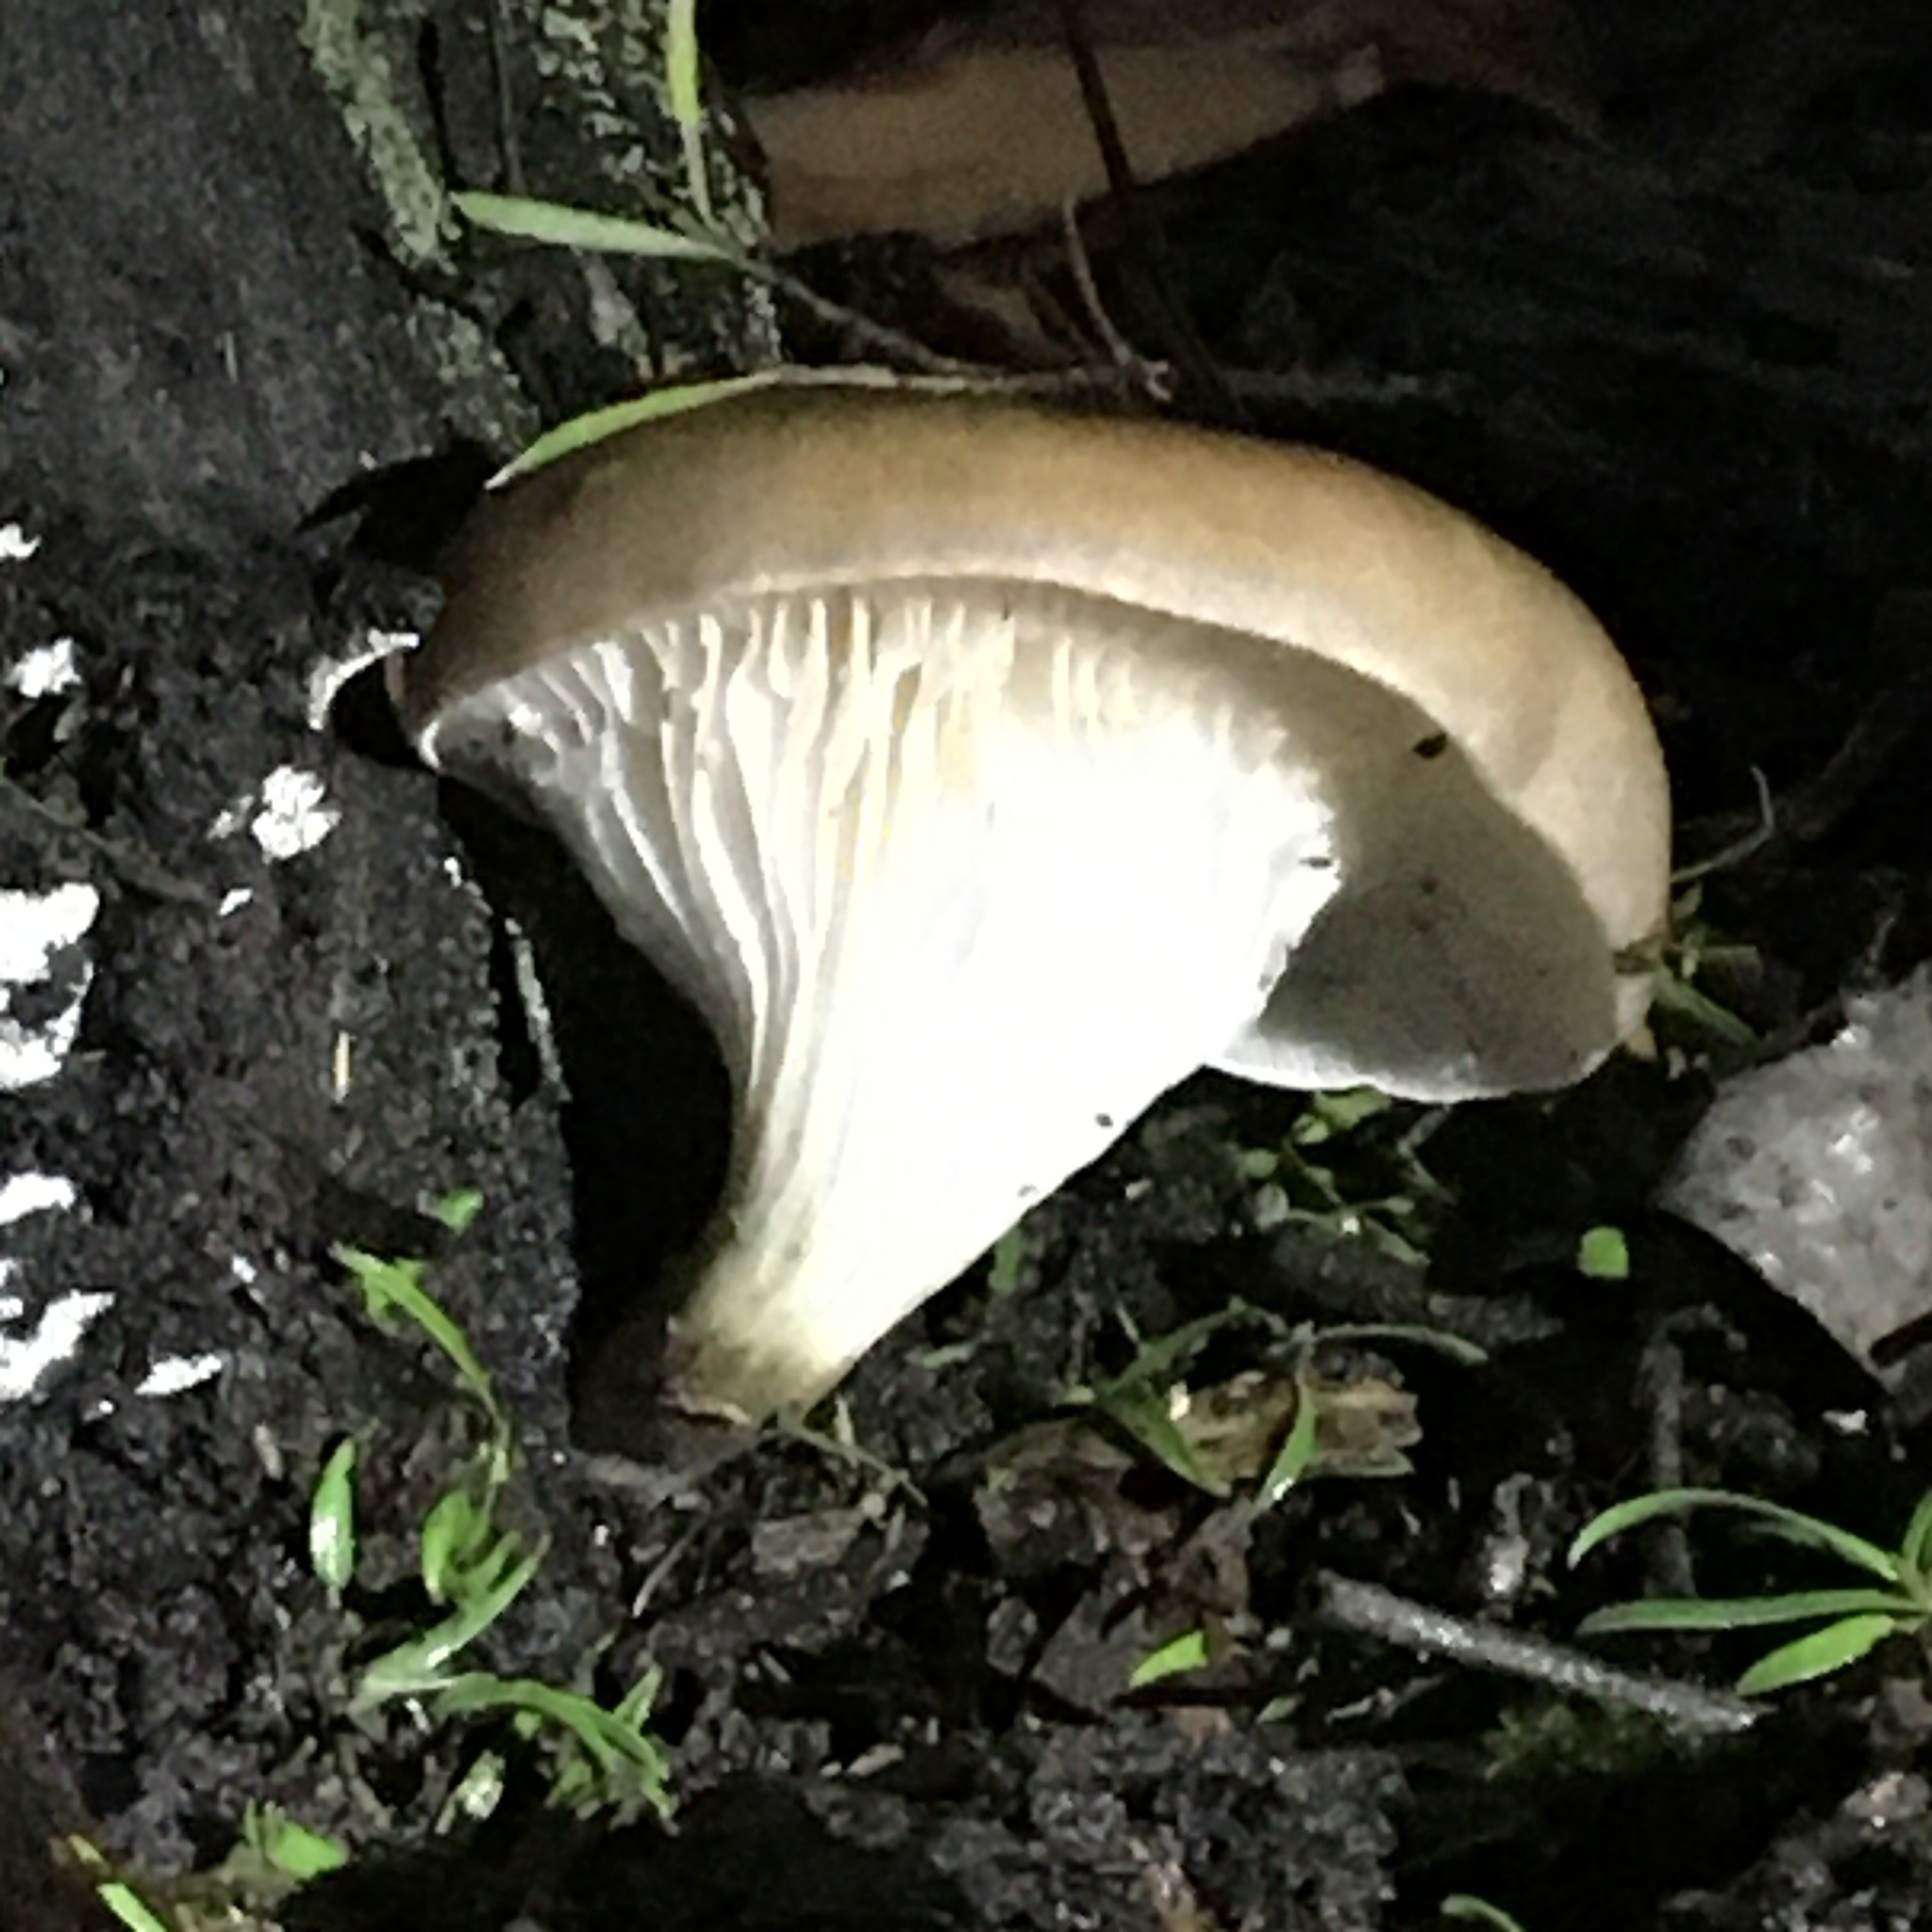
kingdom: Fungi
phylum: Basidiomycota
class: Agaricomycetes
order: Agaricales
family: Omphalotaceae
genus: Omphalotus
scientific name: Omphalotus nidiformis
